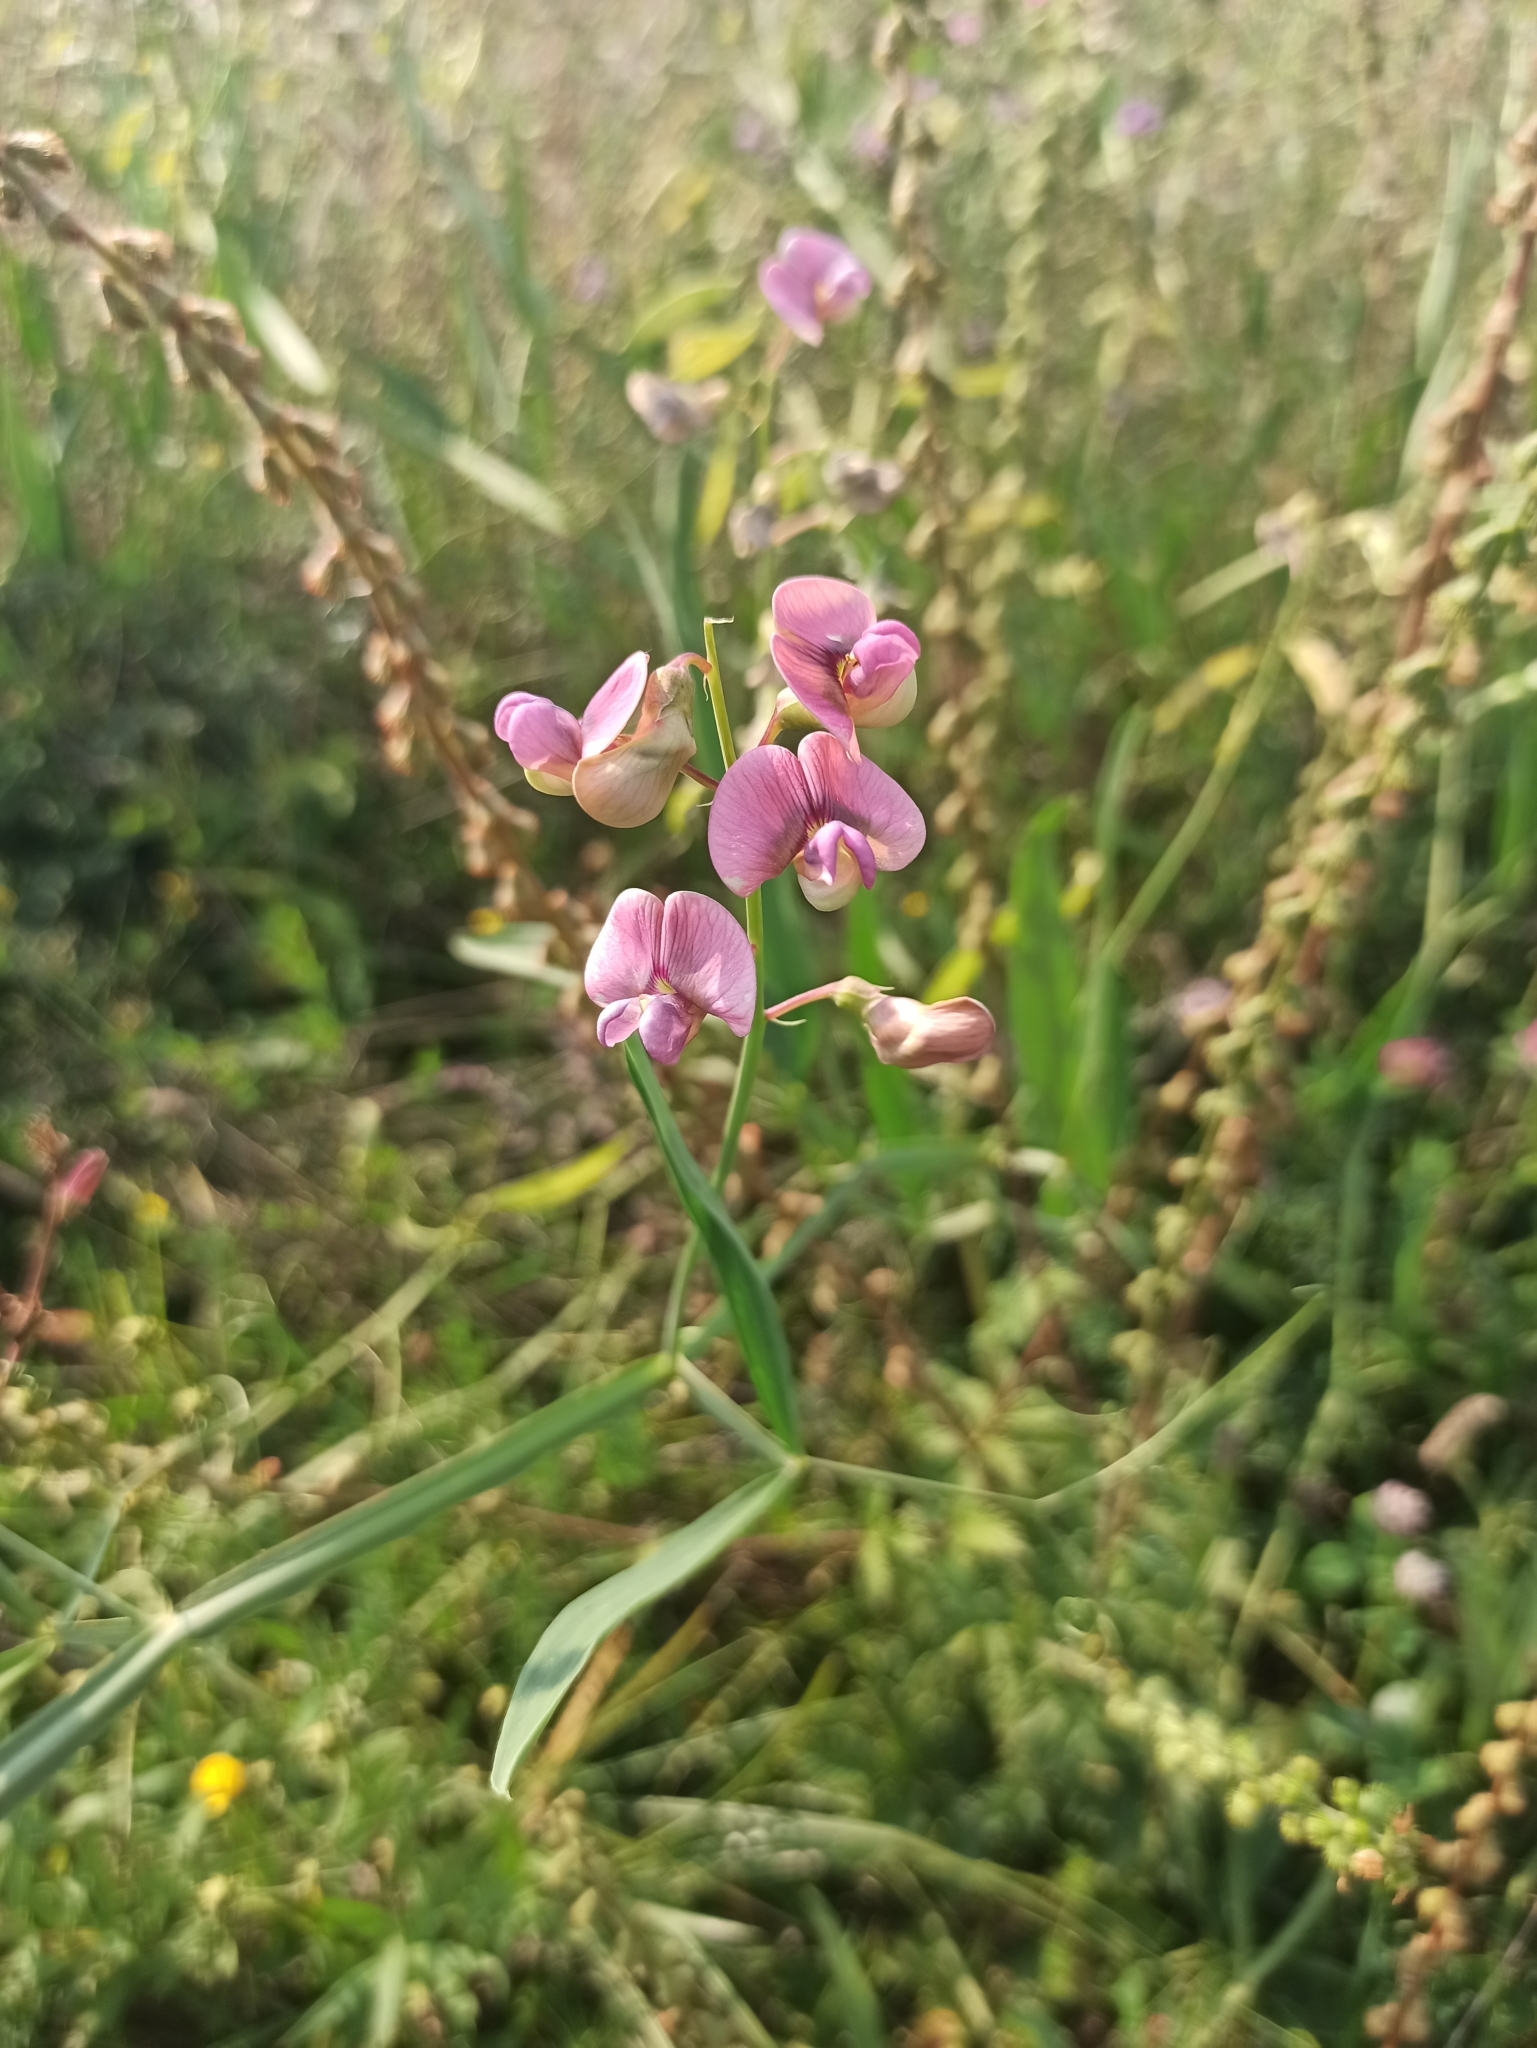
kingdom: Plantae
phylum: Tracheophyta
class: Magnoliopsida
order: Fabales
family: Fabaceae
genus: Lathyrus
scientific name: Lathyrus sylvestris
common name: Flat pea
